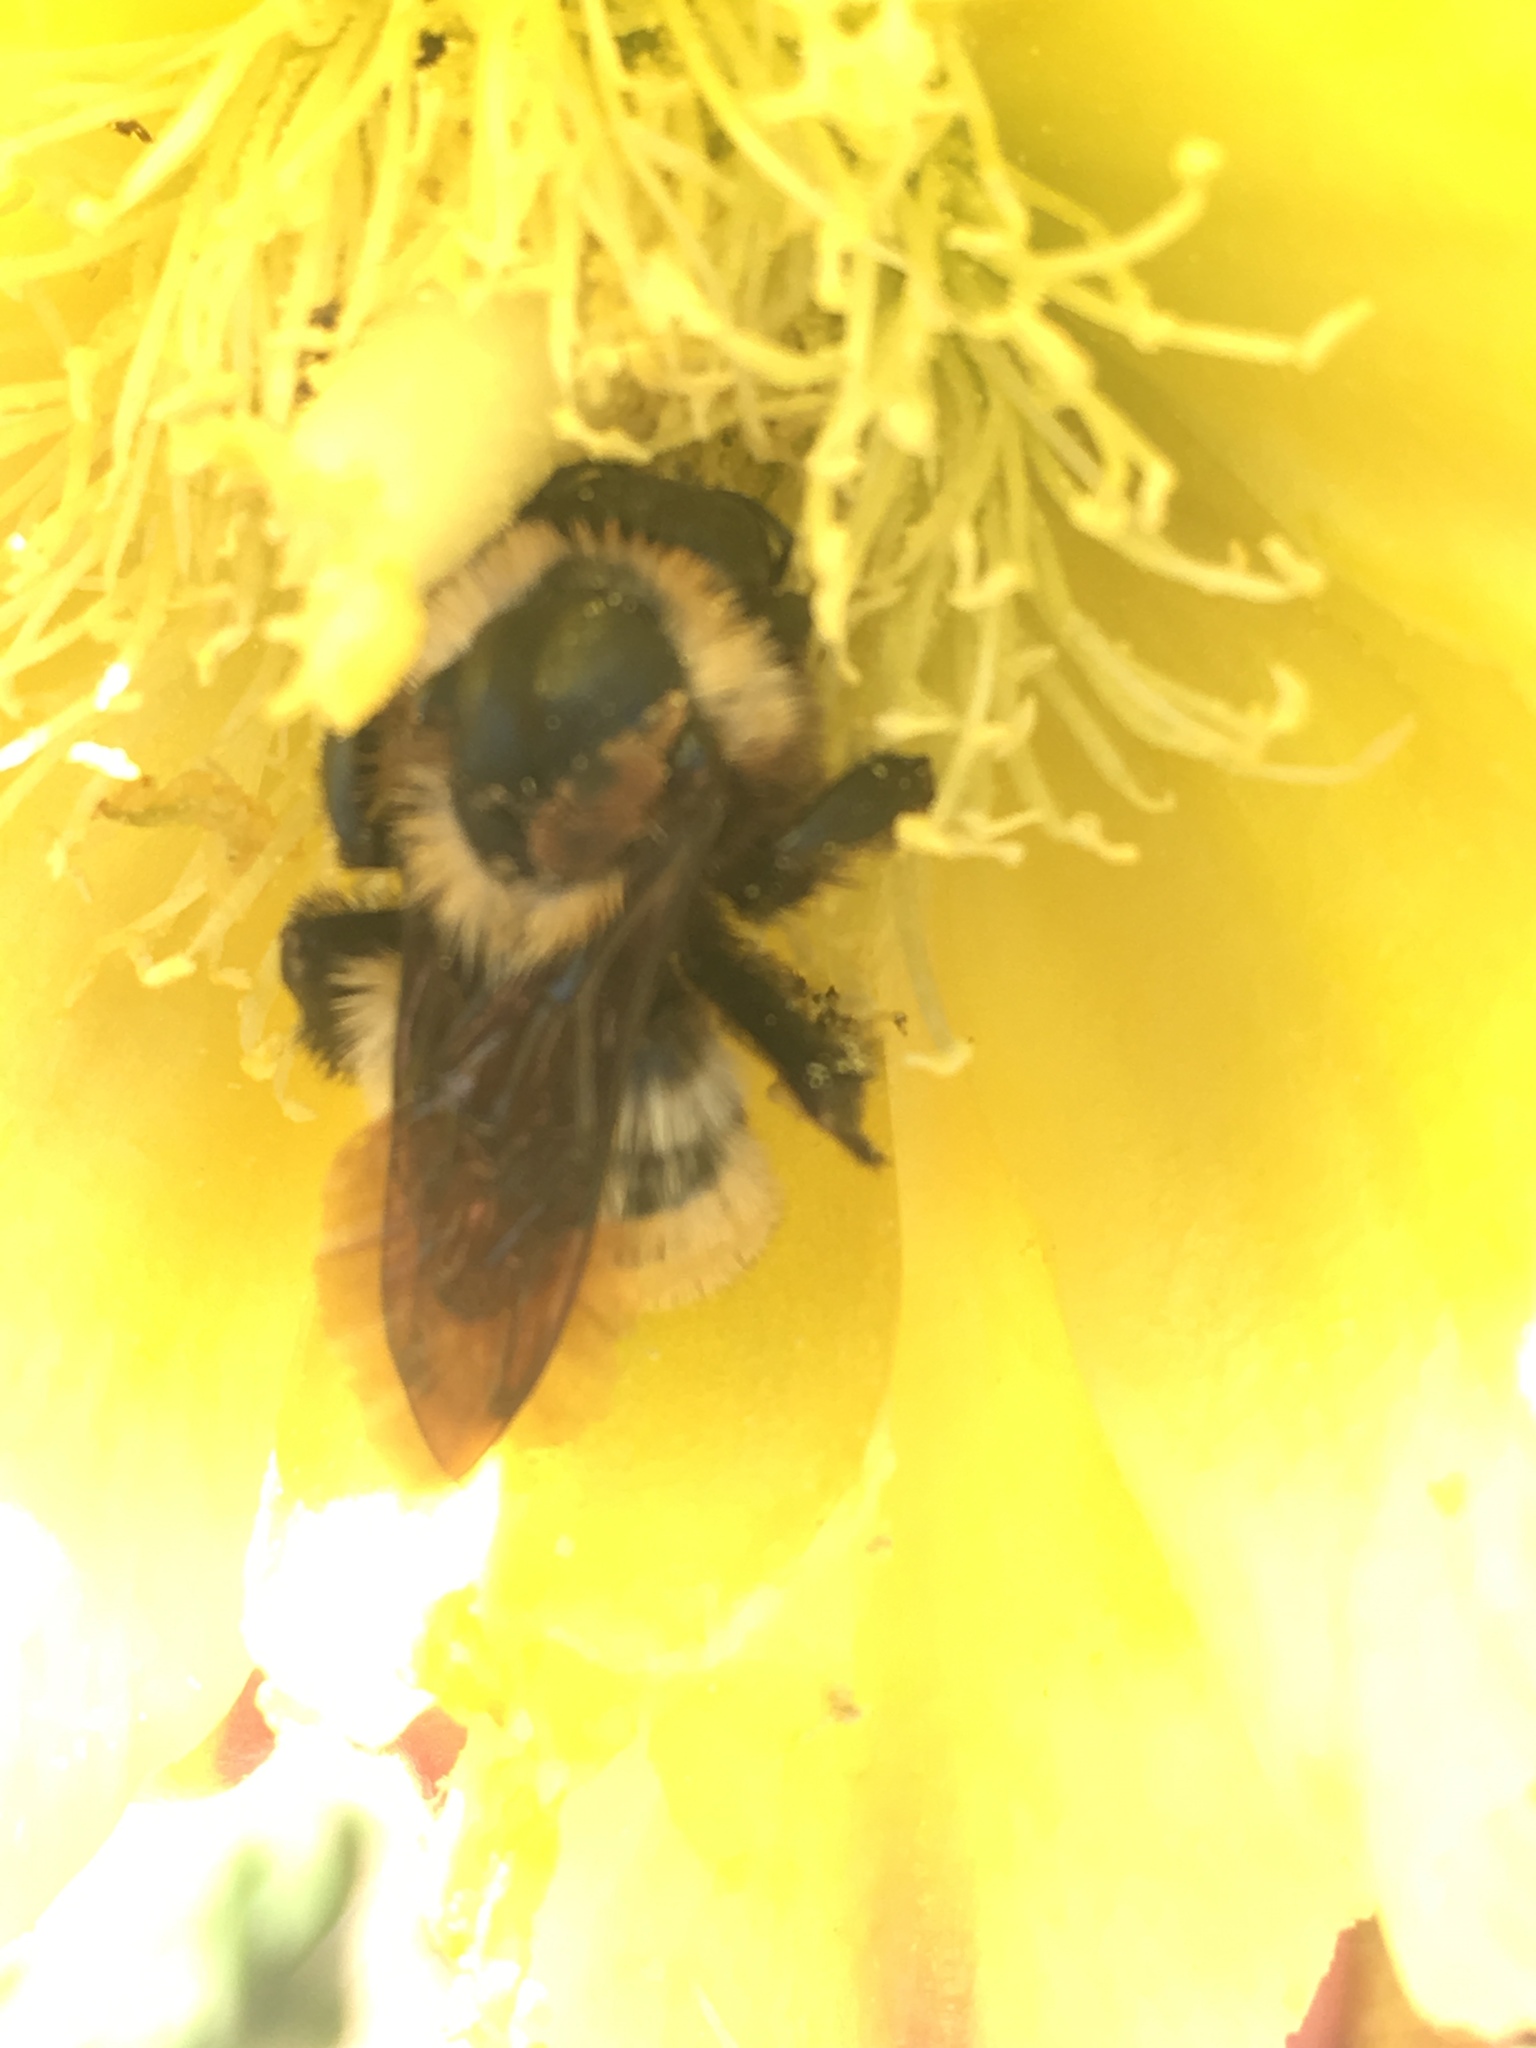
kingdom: Animalia
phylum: Arthropoda
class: Insecta
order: Hymenoptera
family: Apidae
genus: Bombus
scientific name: Bombus sonorus
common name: Sonoran bumble bee
